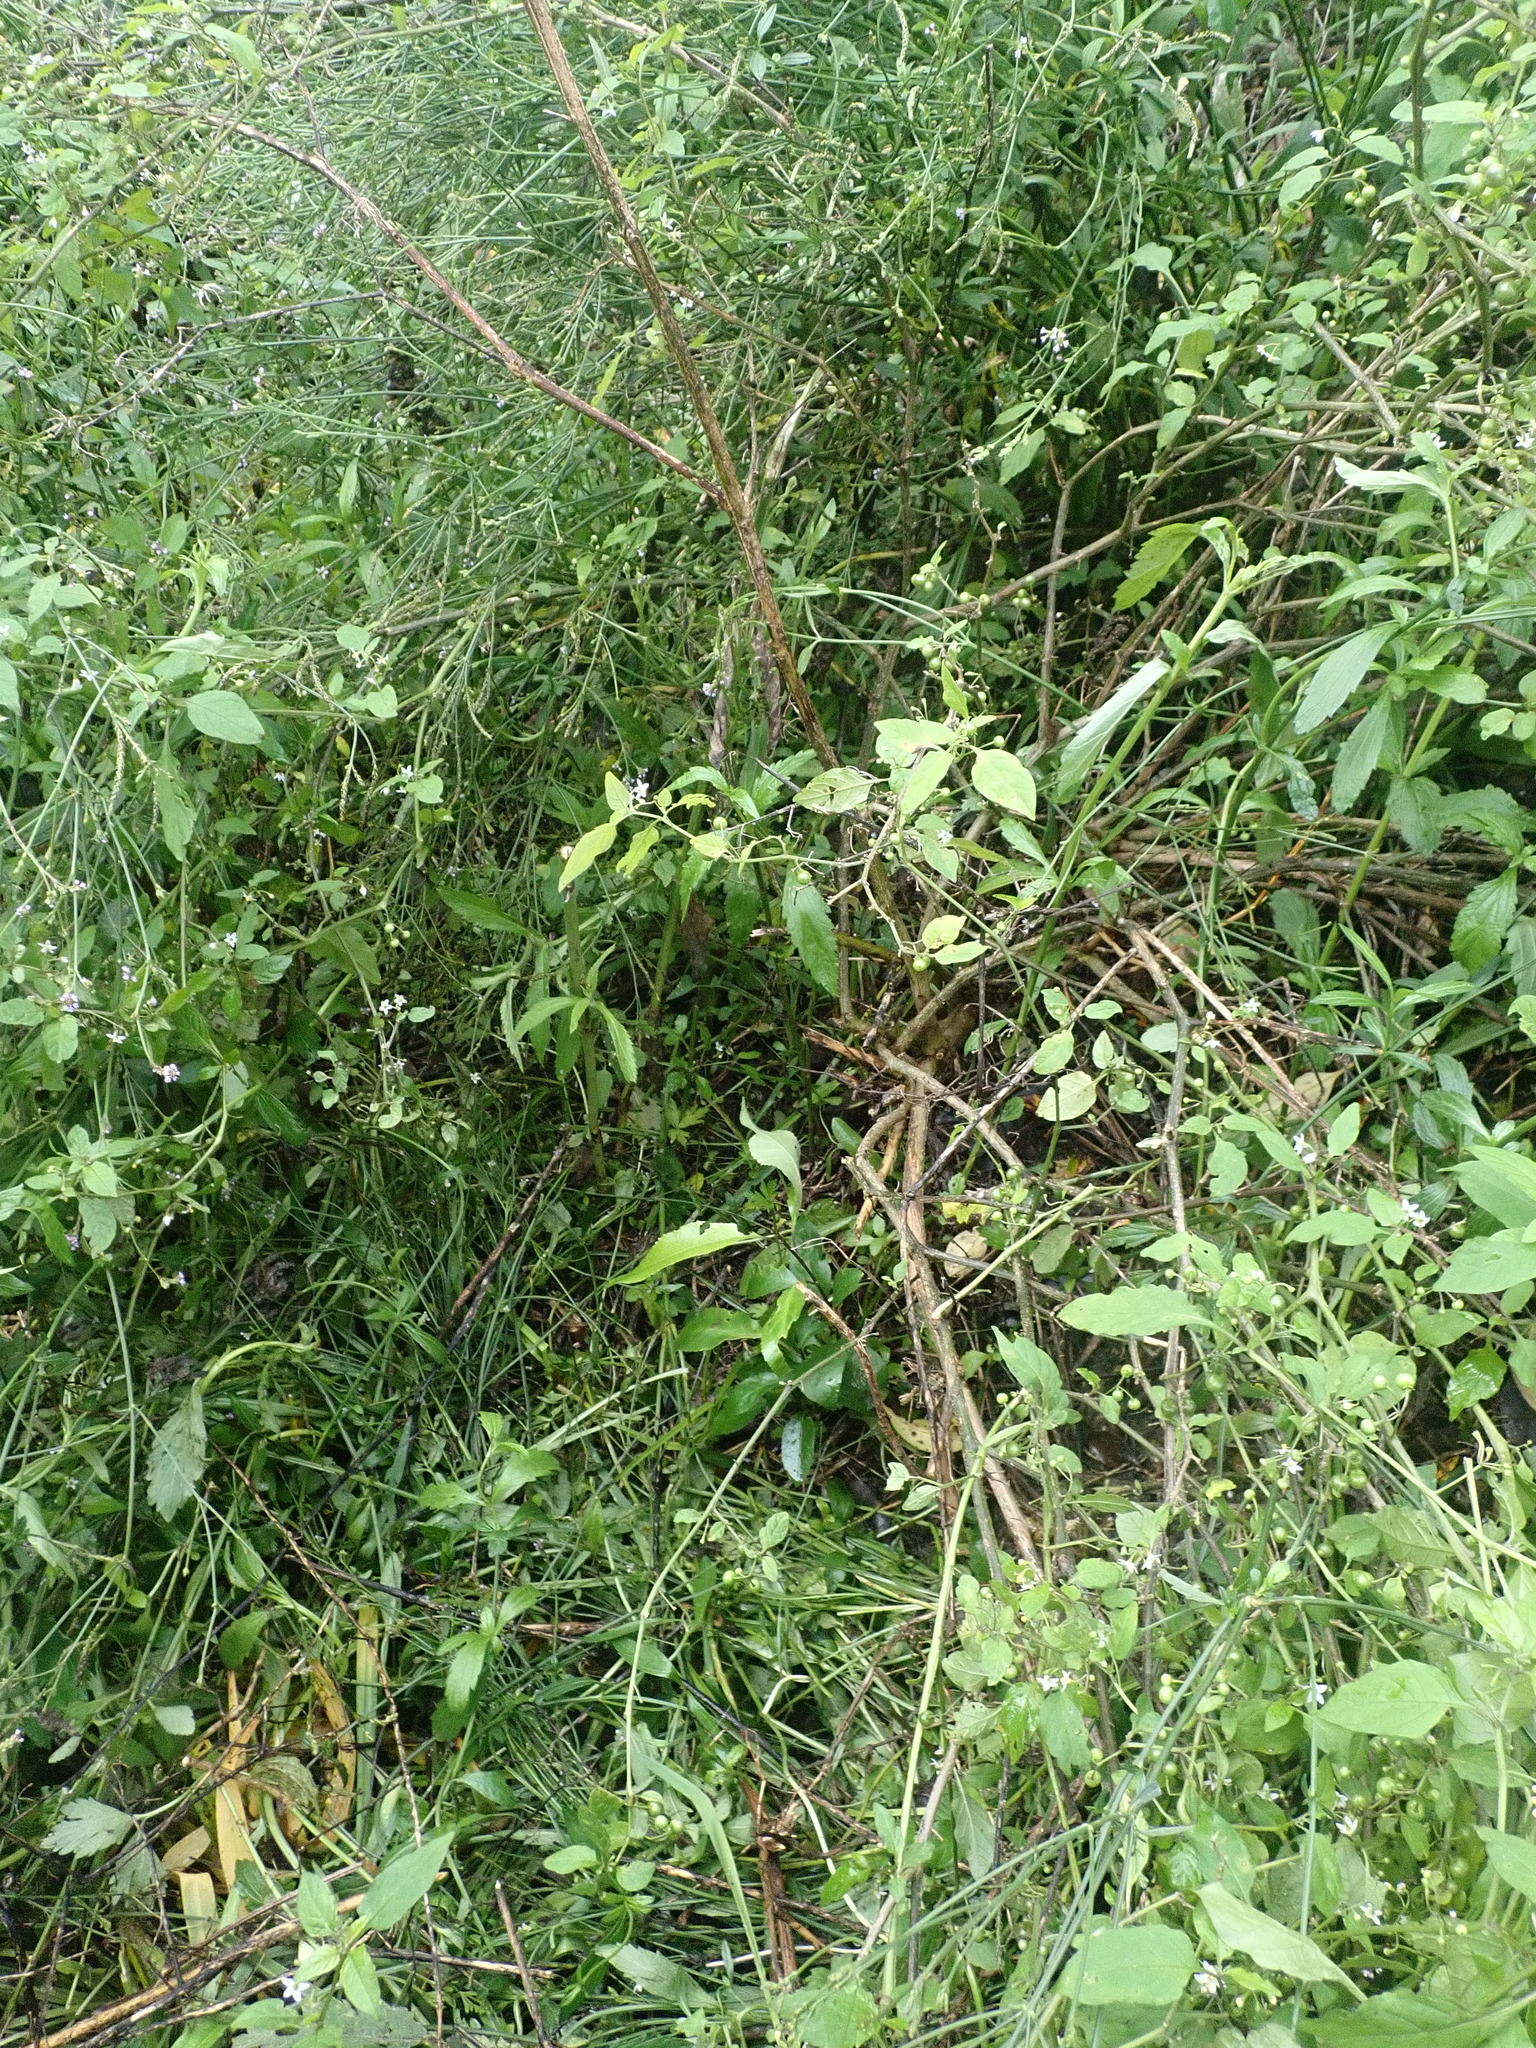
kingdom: Plantae
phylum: Tracheophyta
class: Magnoliopsida
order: Malpighiales
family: Violaceae
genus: Melicytus
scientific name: Melicytus ramiflorus
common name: Mahoe
